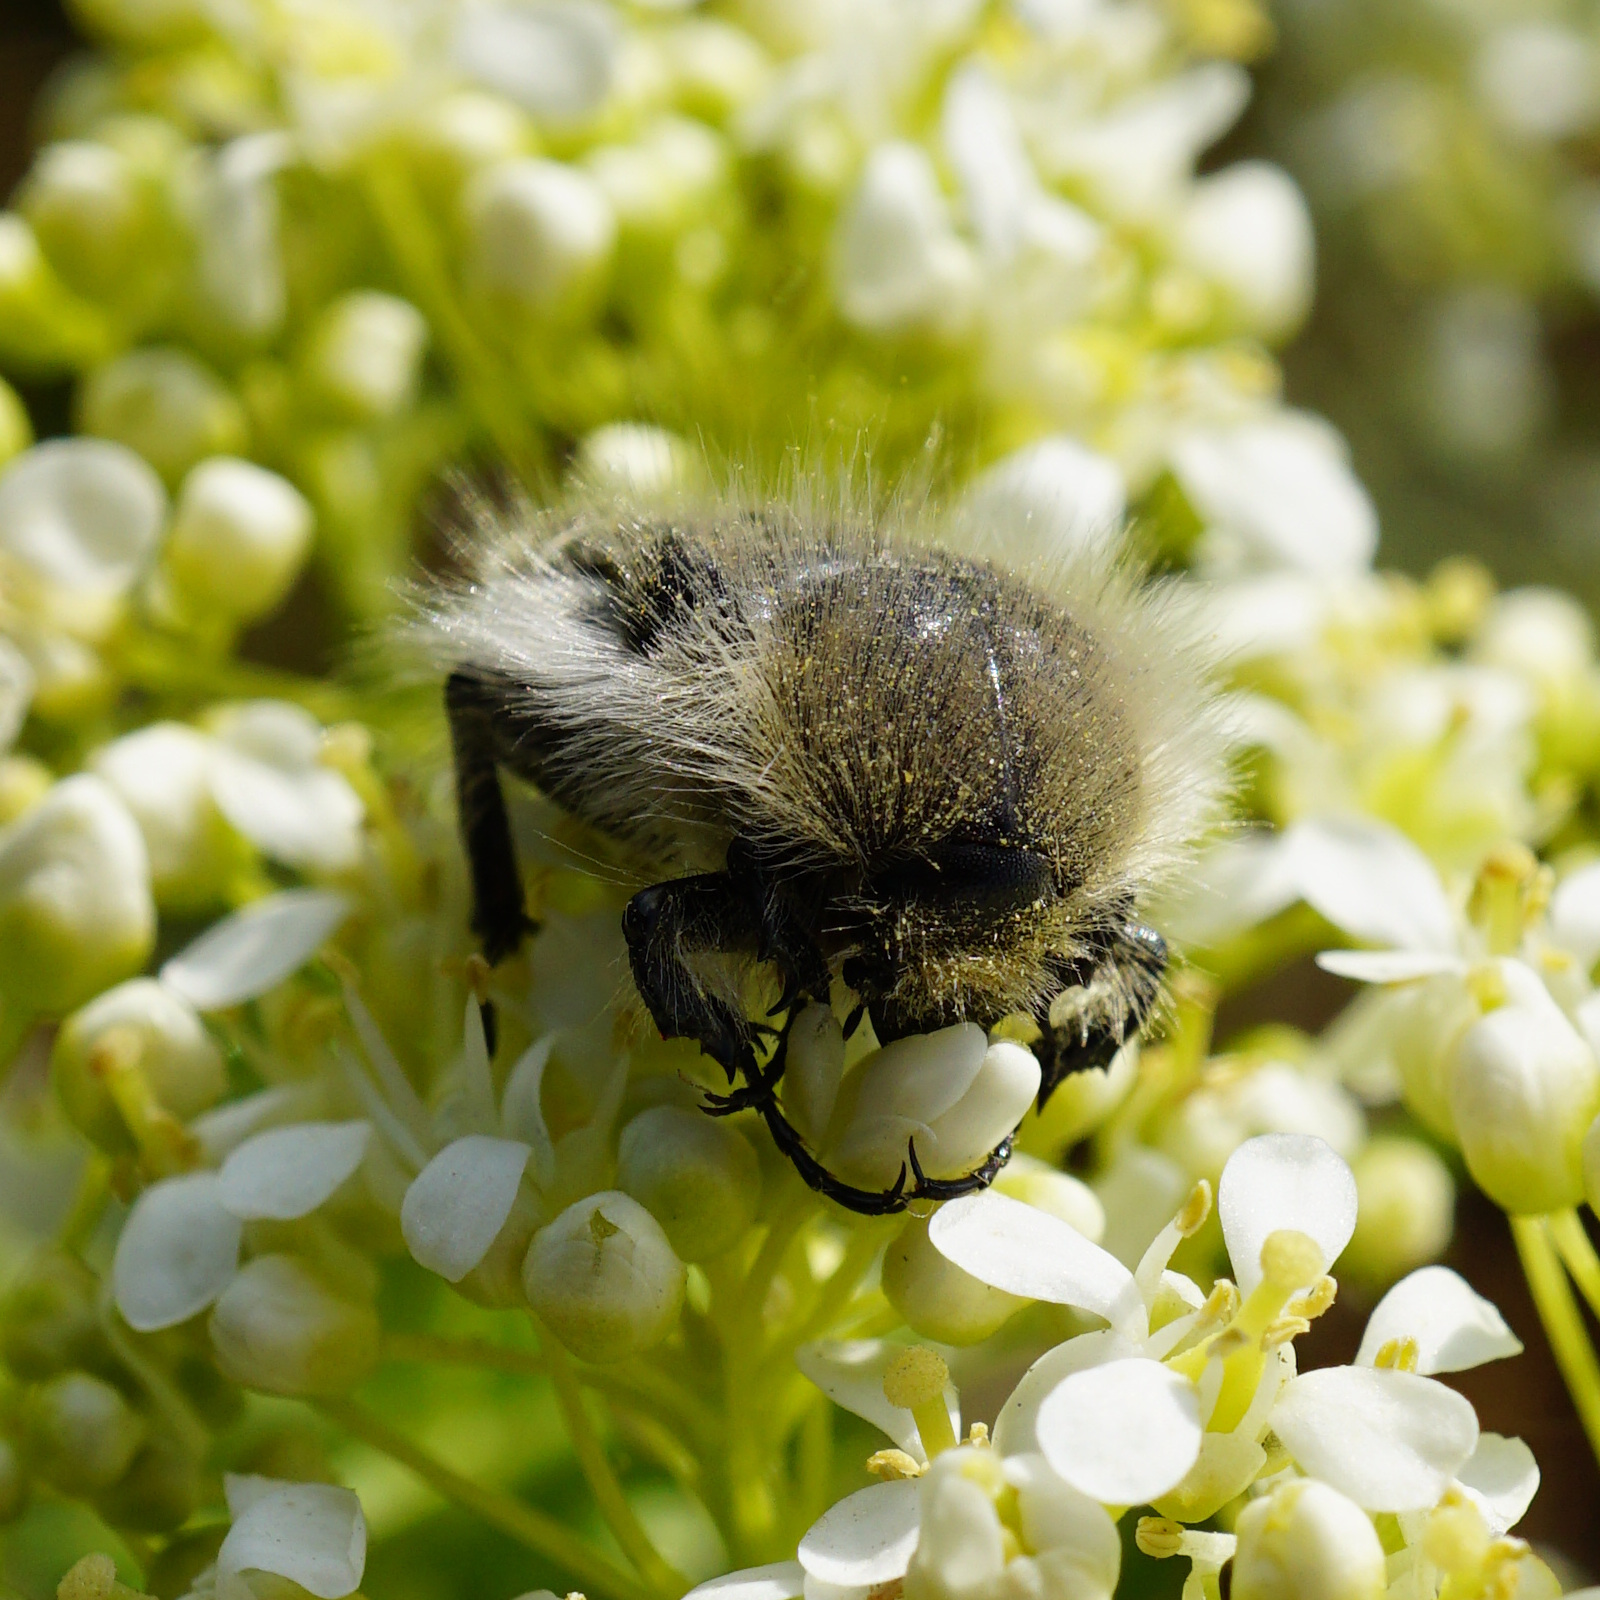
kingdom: Animalia
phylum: Arthropoda
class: Insecta
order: Coleoptera
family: Scarabaeidae
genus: Tropinota
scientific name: Tropinota hirta
